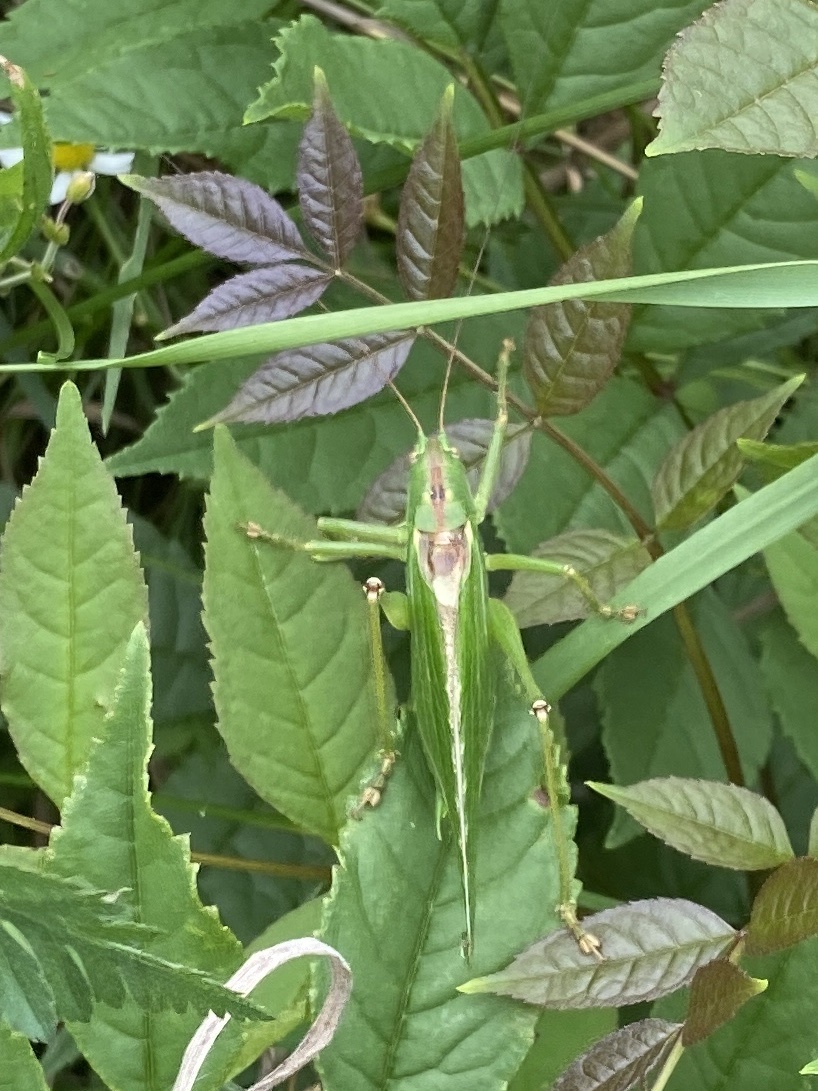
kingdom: Animalia
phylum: Arthropoda
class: Insecta
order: Orthoptera
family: Tettigoniidae
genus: Tettigonia
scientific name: Tettigonia viridissima
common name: Great green bush-cricket
